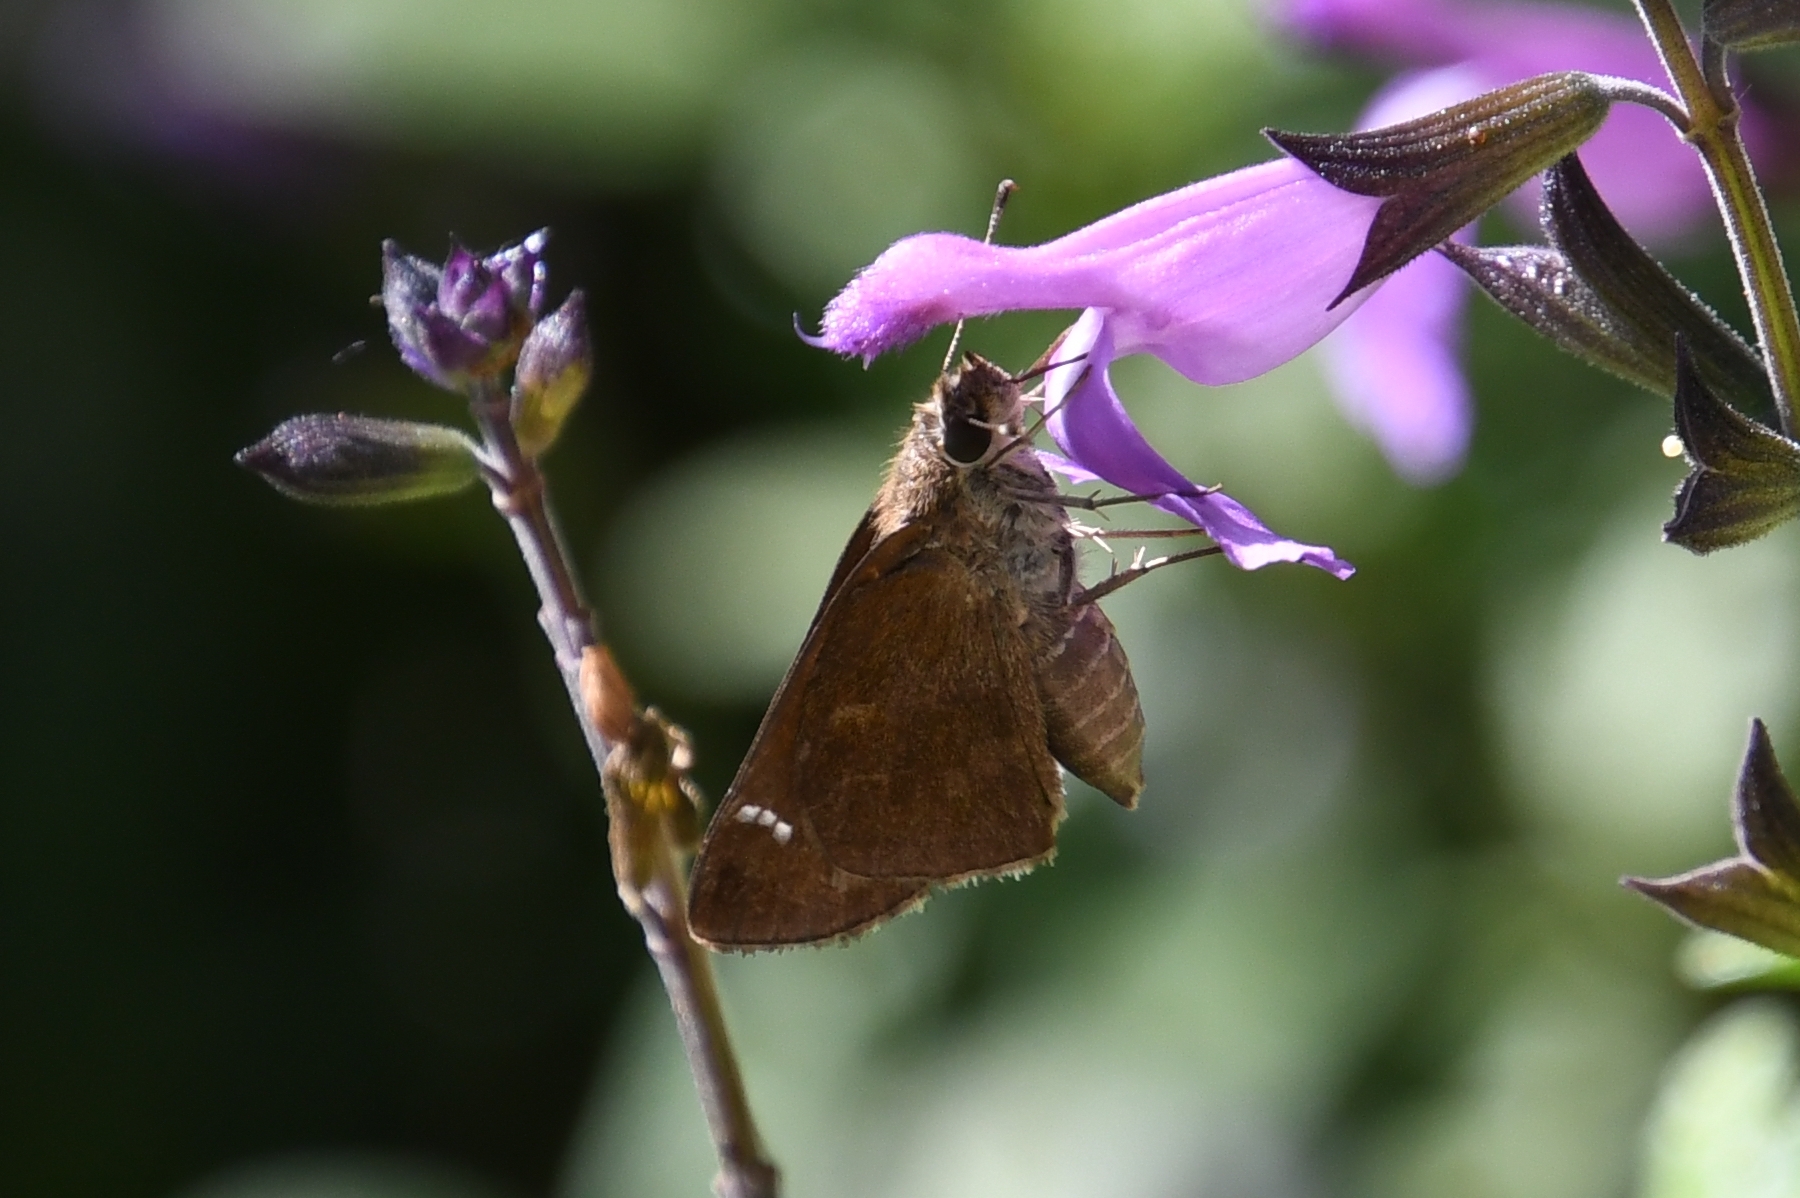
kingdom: Animalia
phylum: Arthropoda
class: Insecta
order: Lepidoptera
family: Hesperiidae
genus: Lerema
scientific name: Lerema accius
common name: Clouded skipper
